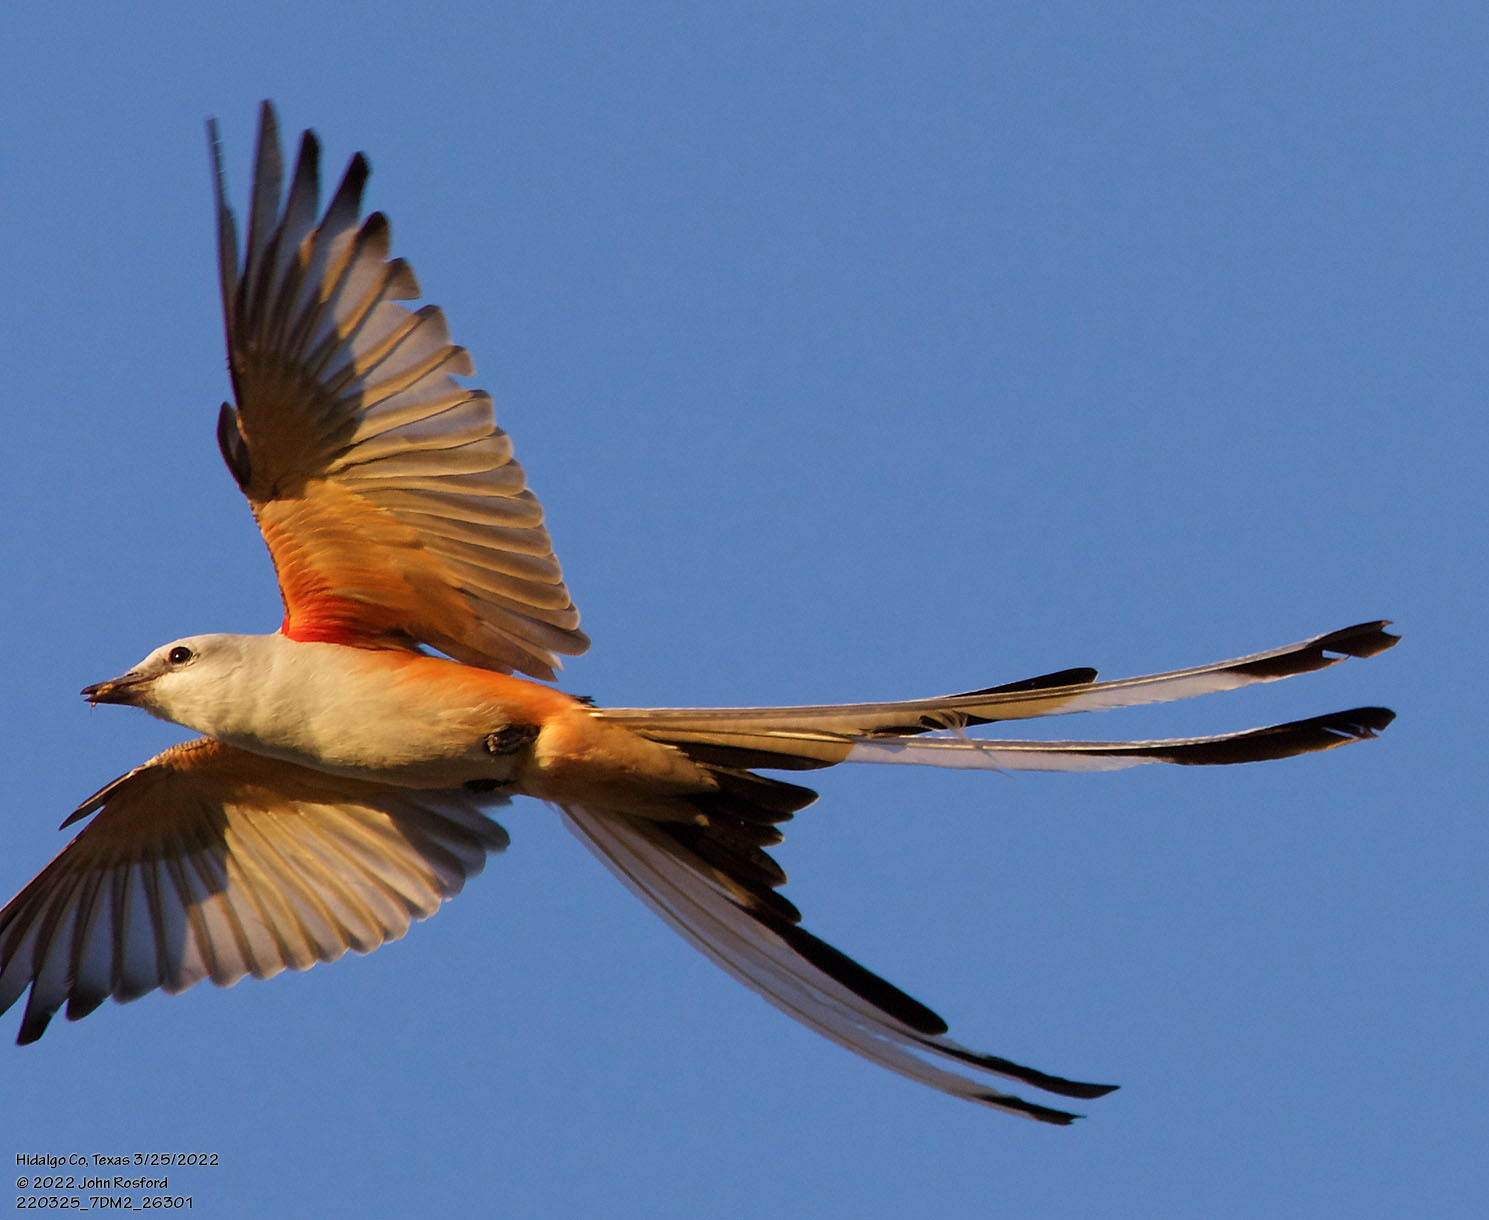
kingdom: Animalia
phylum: Chordata
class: Aves
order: Passeriformes
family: Tyrannidae
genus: Tyrannus
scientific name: Tyrannus forficatus
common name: Scissor-tailed flycatcher
